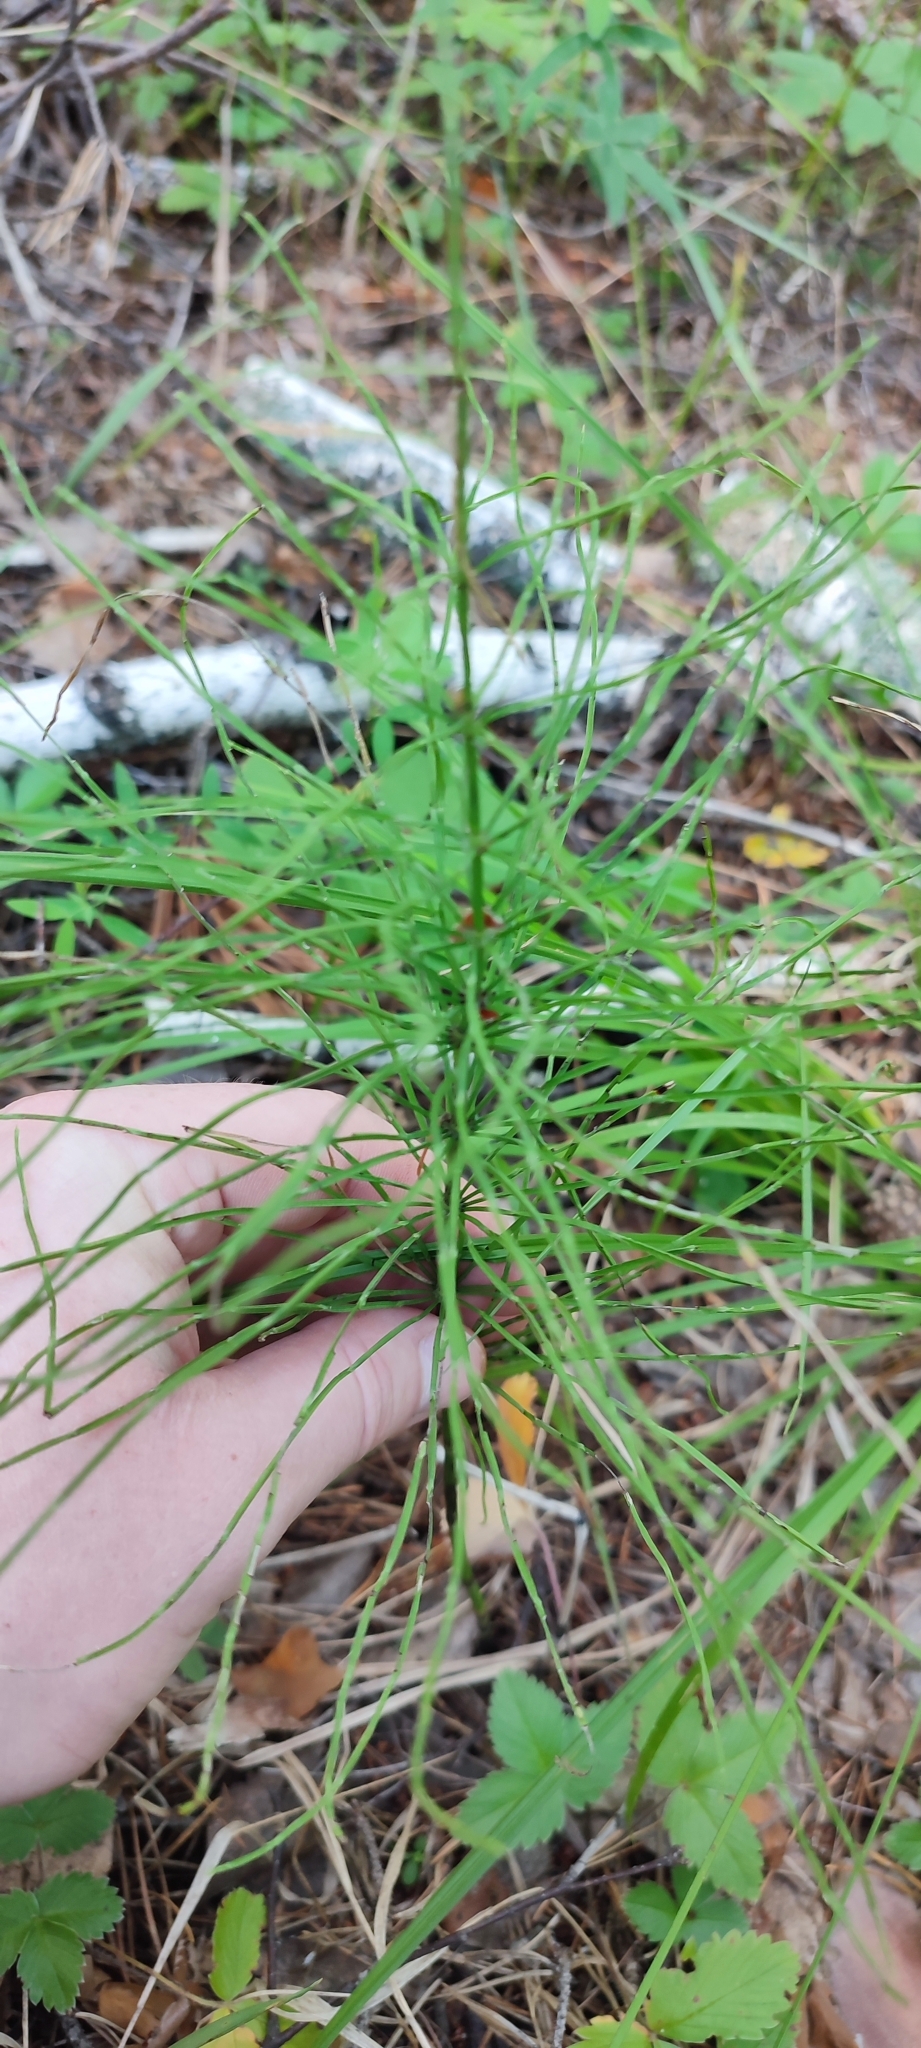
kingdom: Plantae
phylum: Tracheophyta
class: Polypodiopsida
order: Equisetales
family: Equisetaceae
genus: Equisetum
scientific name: Equisetum arvense
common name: Field horsetail
